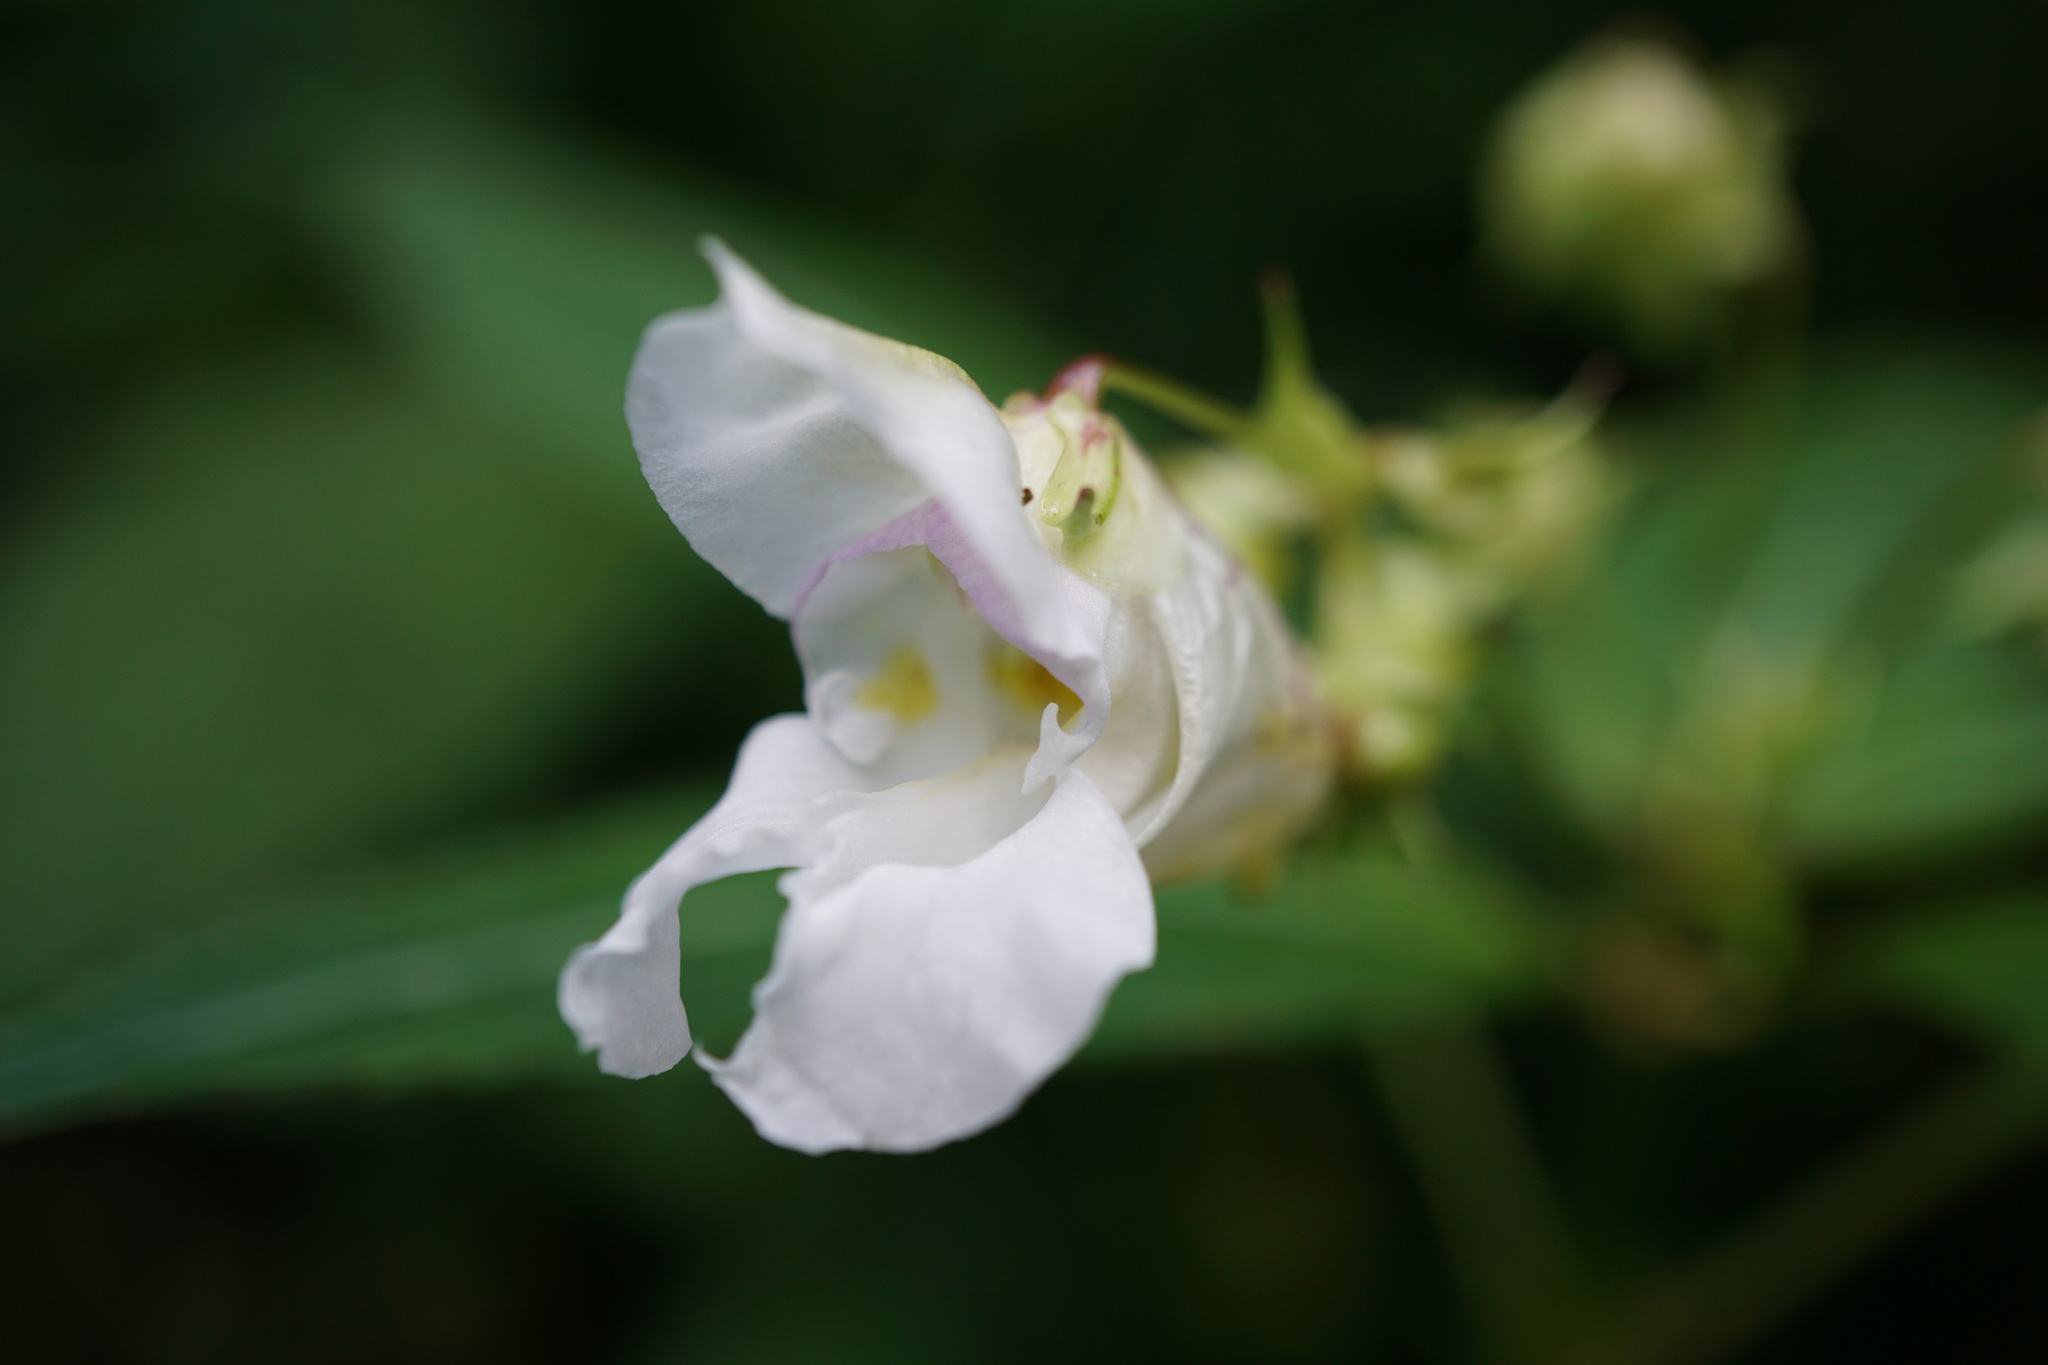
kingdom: Plantae
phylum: Tracheophyta
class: Magnoliopsida
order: Ericales
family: Balsaminaceae
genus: Impatiens
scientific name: Impatiens glandulifera
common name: Himalayan balsam
